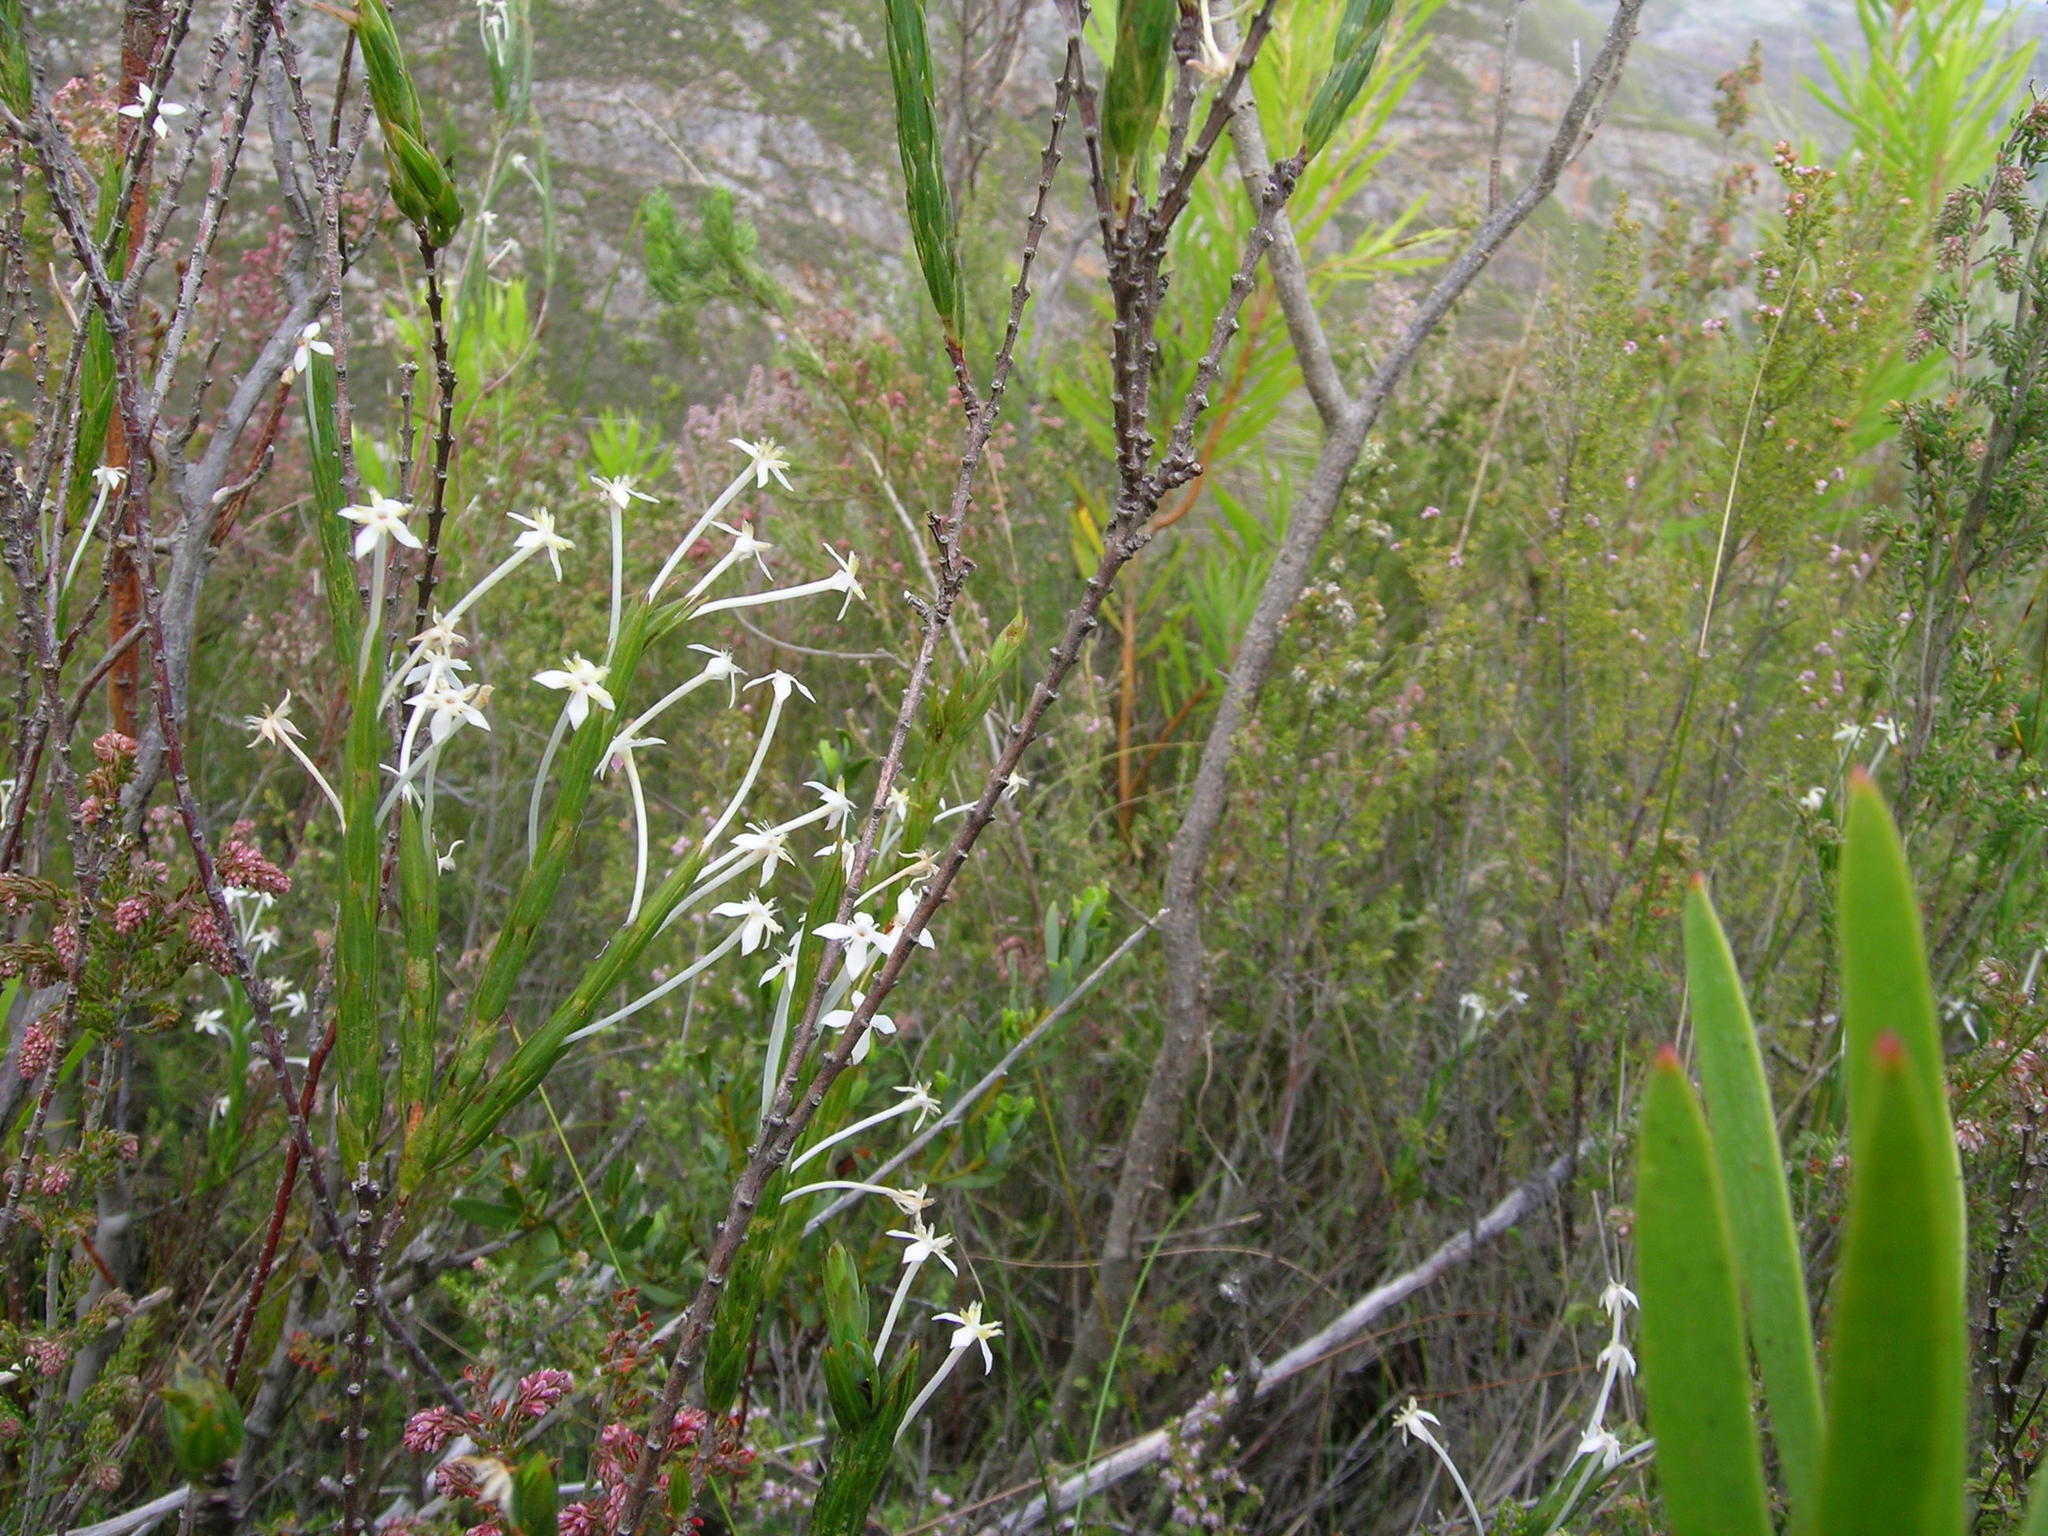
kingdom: Plantae
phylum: Tracheophyta
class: Magnoliopsida
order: Malvales
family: Thymelaeaceae
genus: Struthiola
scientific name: Struthiola myrsinites
